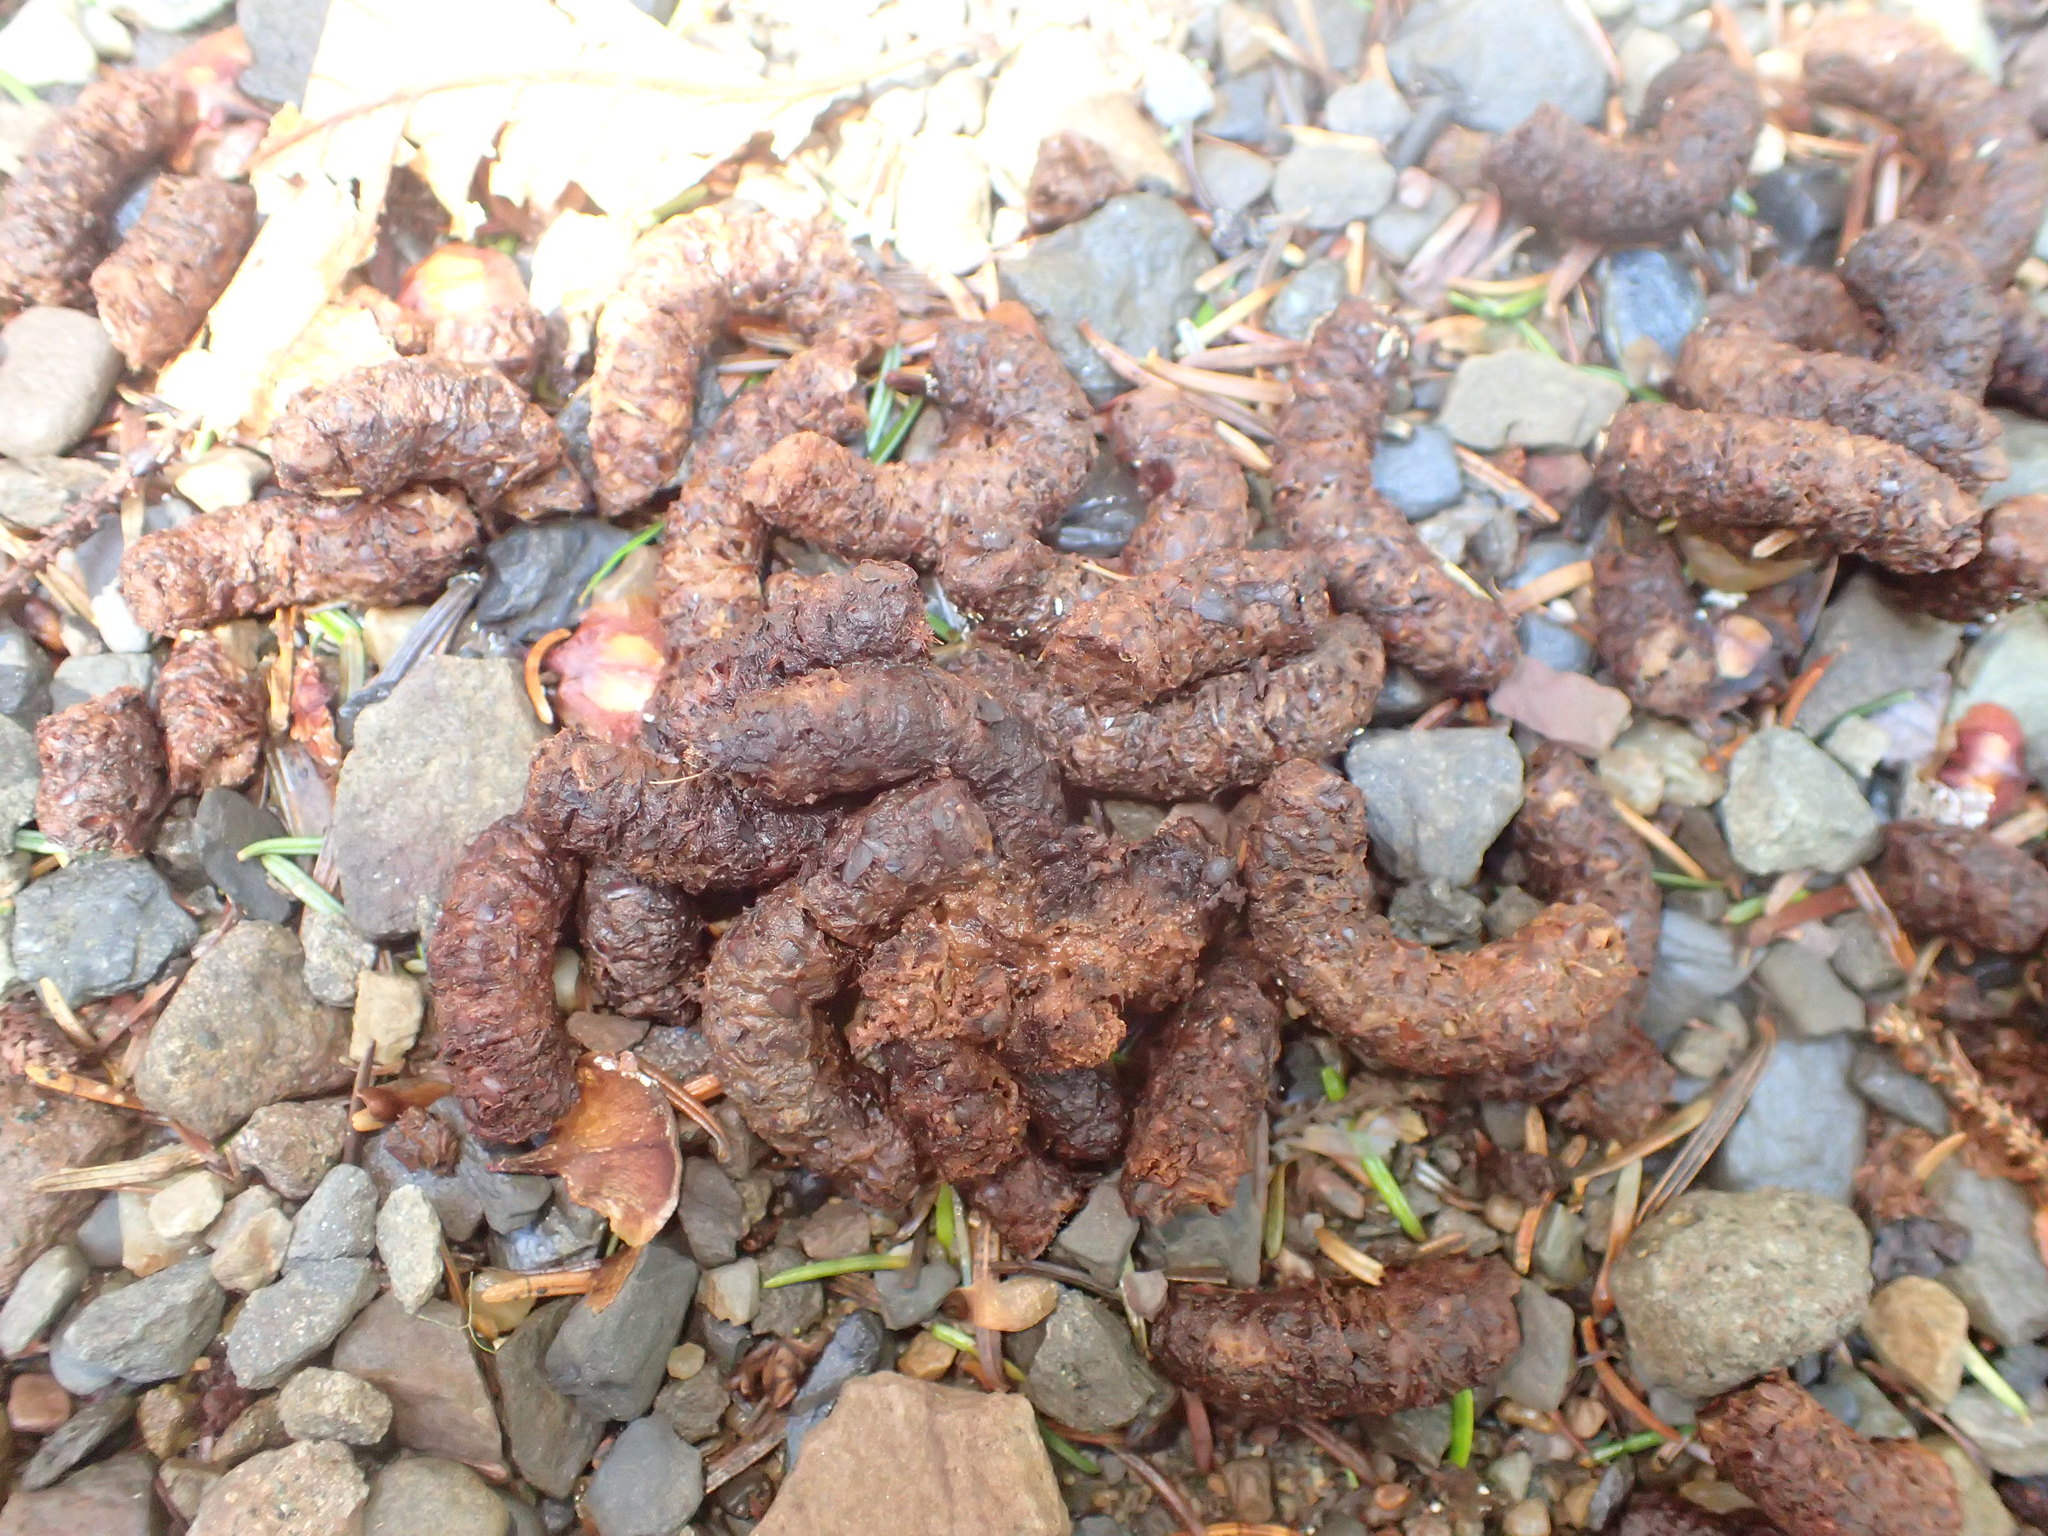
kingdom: Animalia
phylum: Chordata
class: Aves
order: Galliformes
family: Phasianidae
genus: Bonasa
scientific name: Bonasa umbellus
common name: Ruffed grouse
